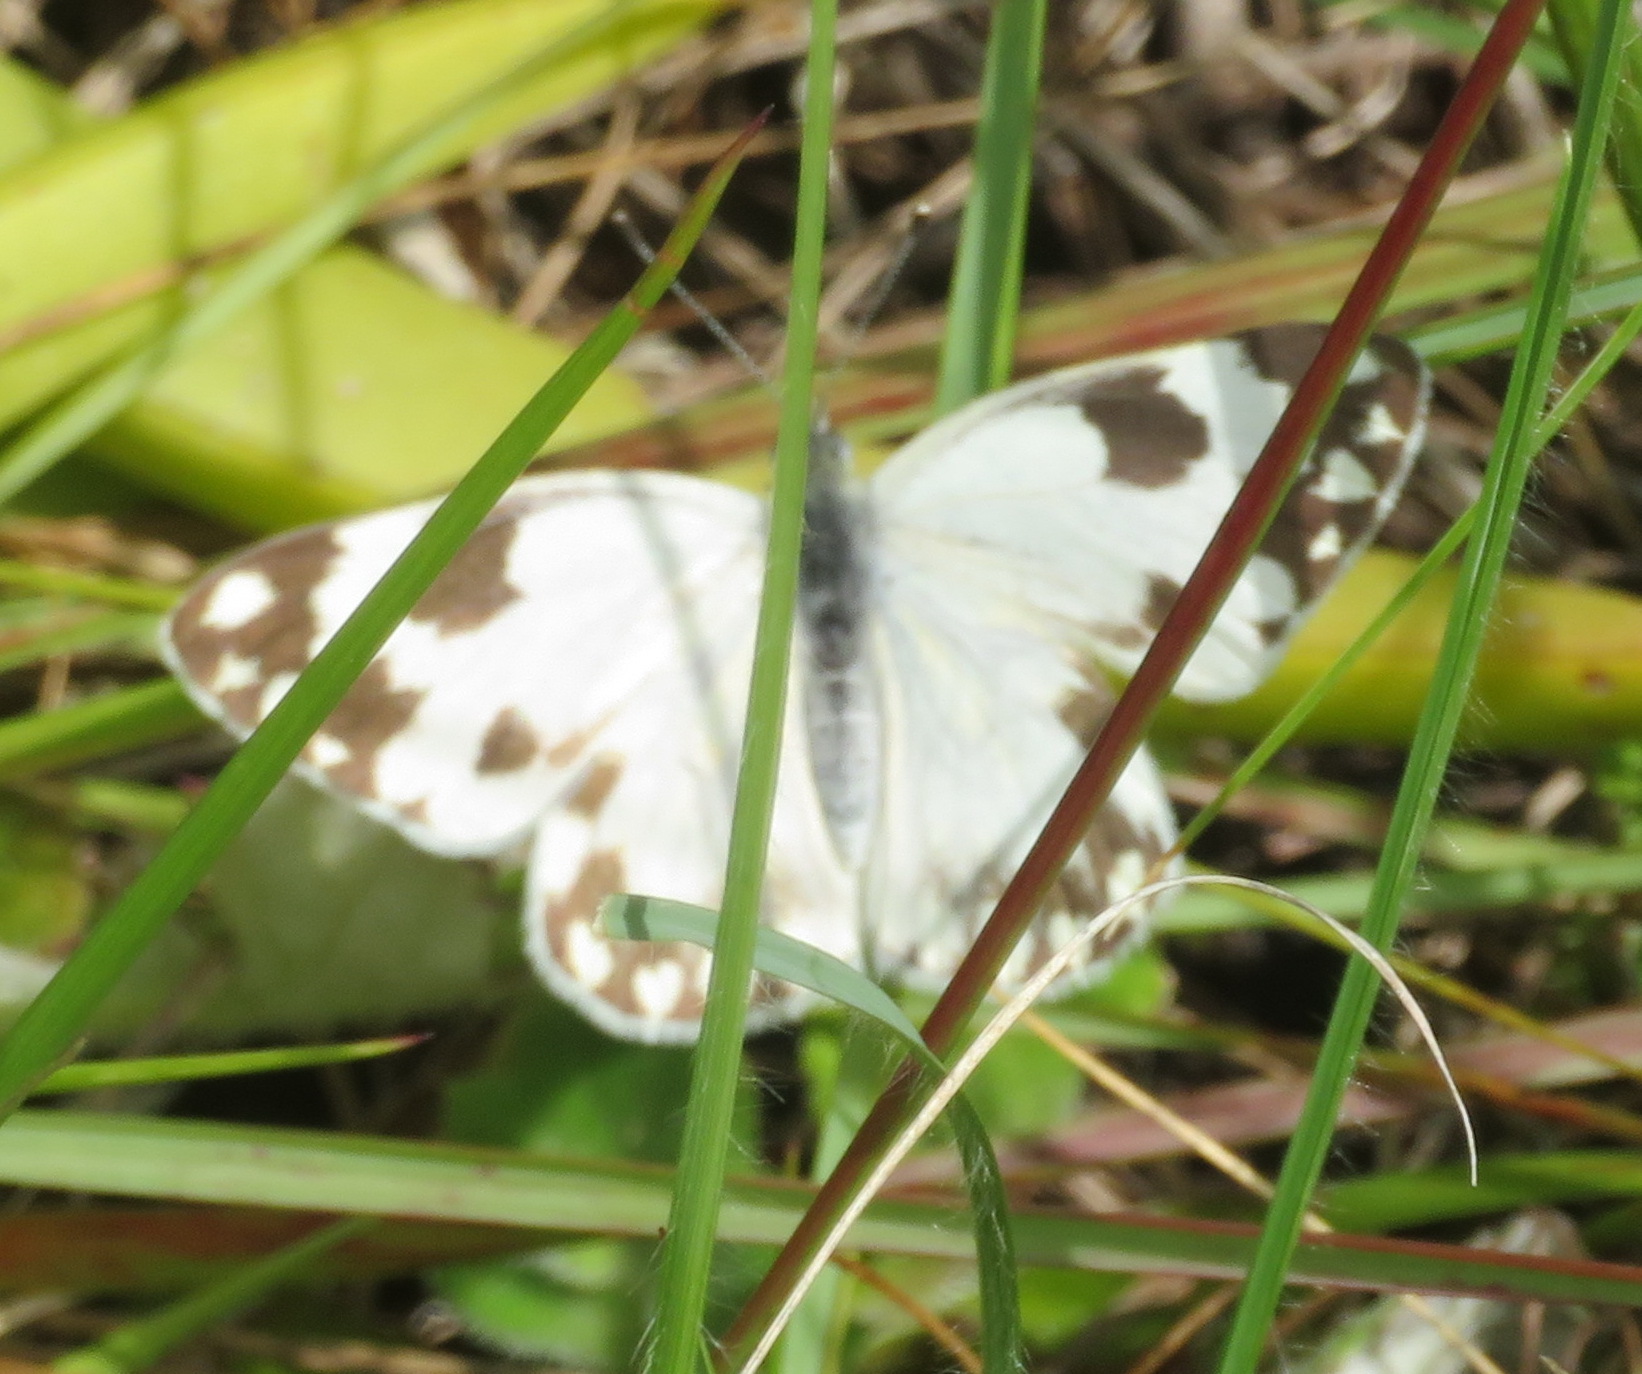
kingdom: Animalia
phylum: Arthropoda
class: Insecta
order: Lepidoptera
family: Pieridae
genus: Pontia
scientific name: Pontia helice
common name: Meadow white
